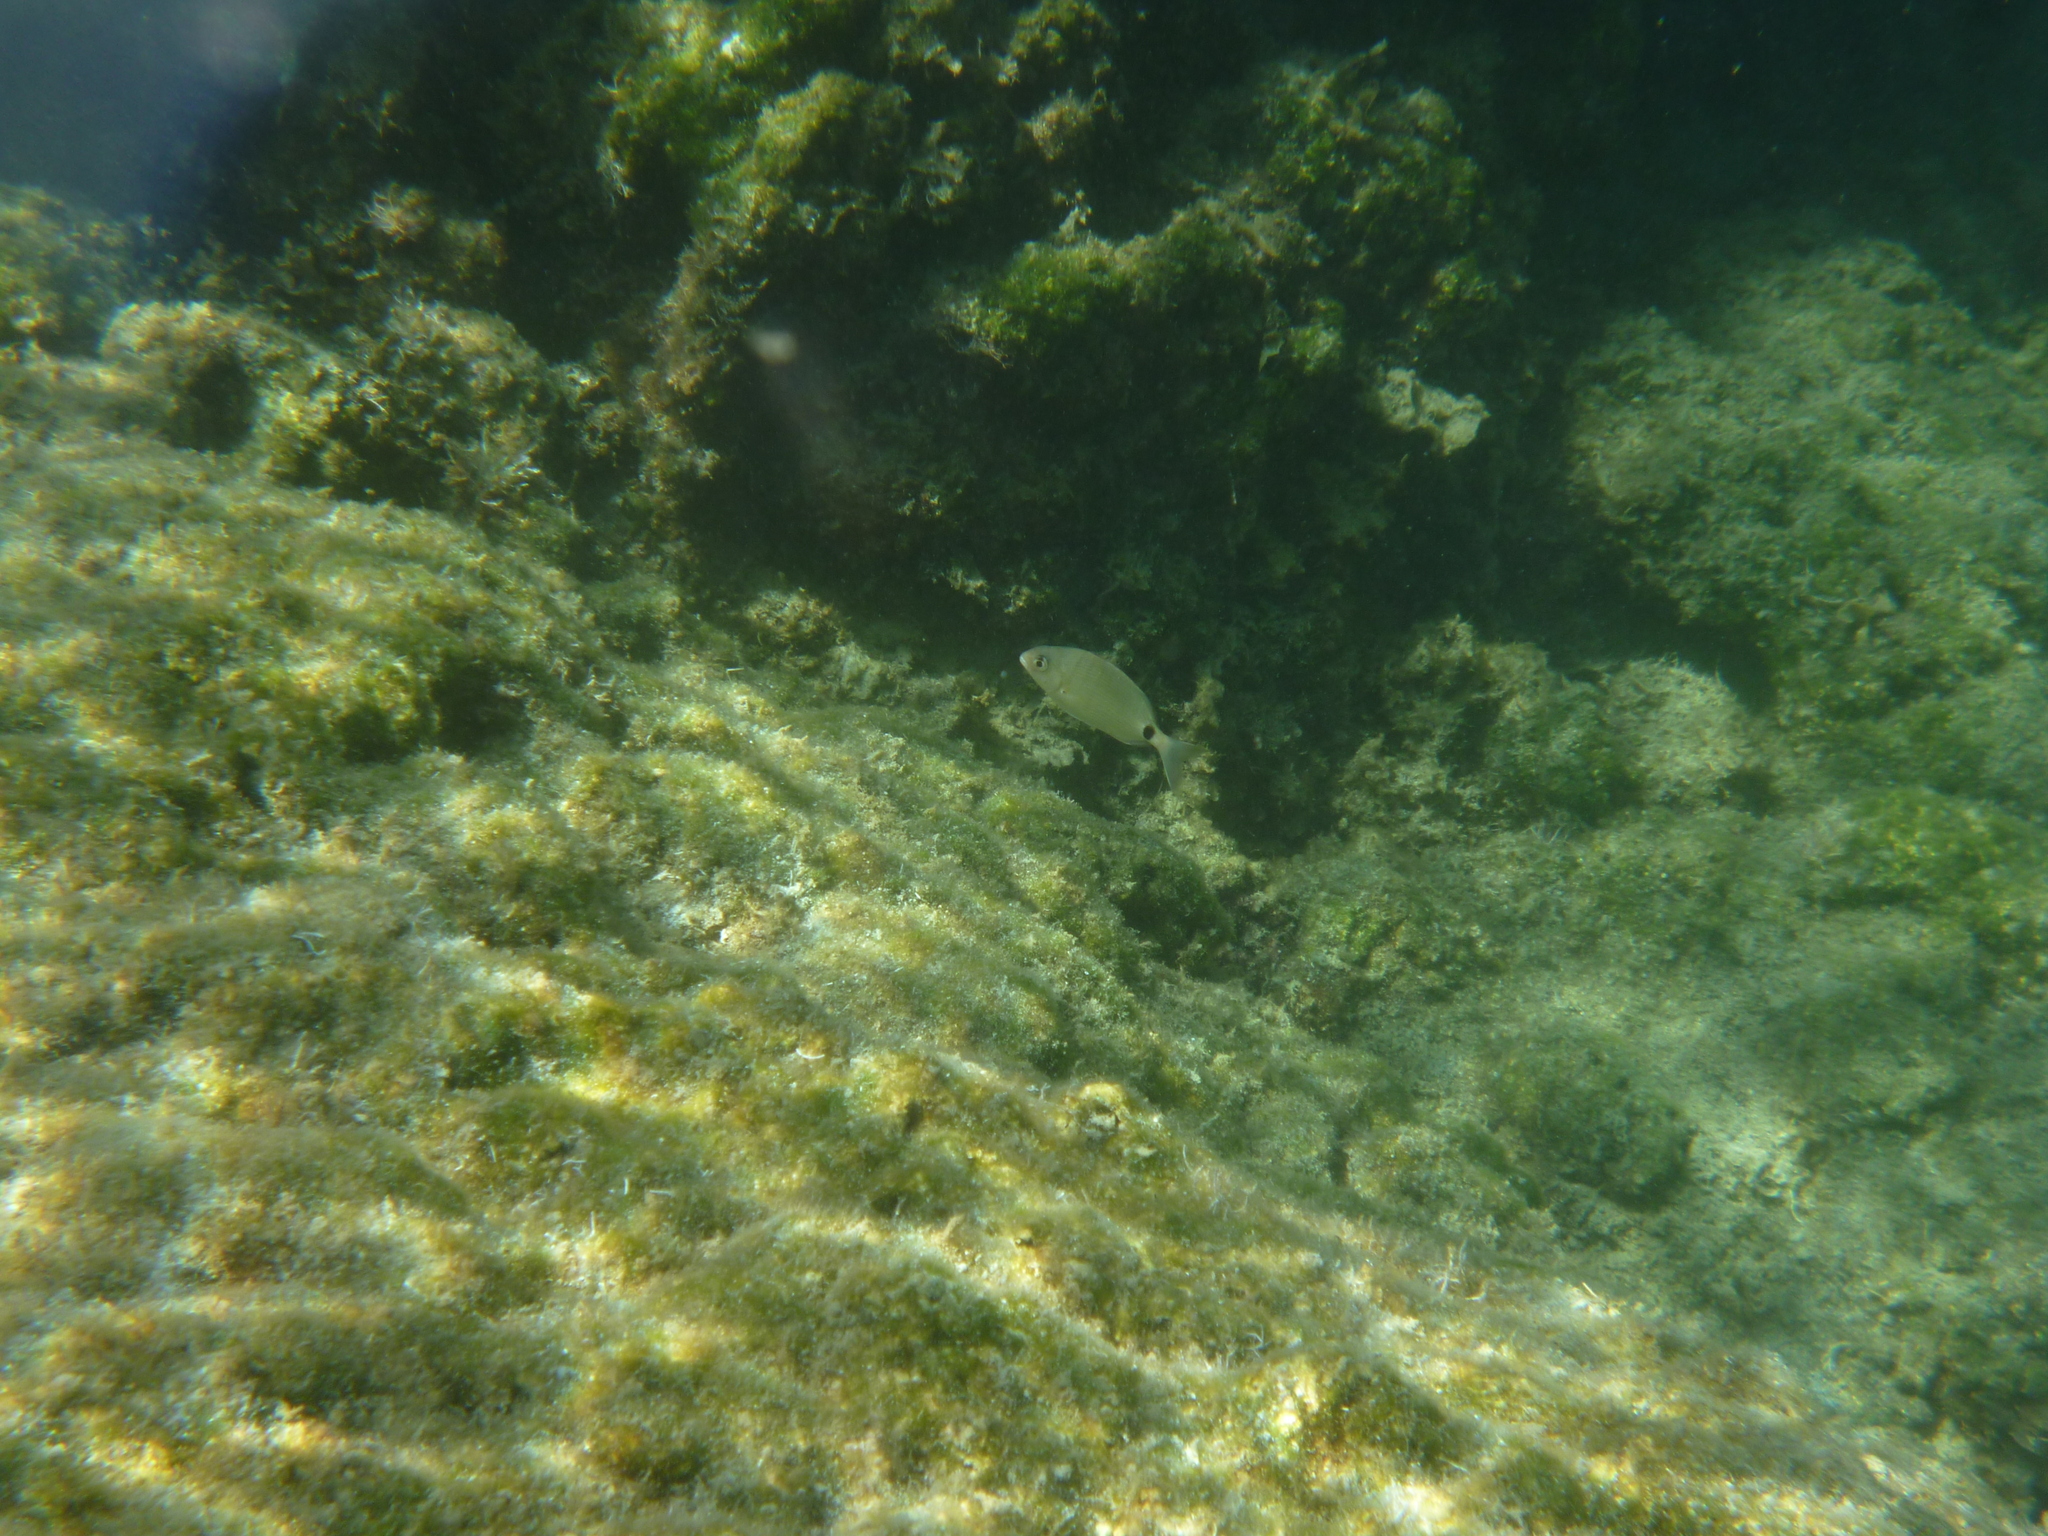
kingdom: Animalia
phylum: Chordata
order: Perciformes
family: Sparidae
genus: Diplodus
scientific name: Diplodus sargus
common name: White seabream
